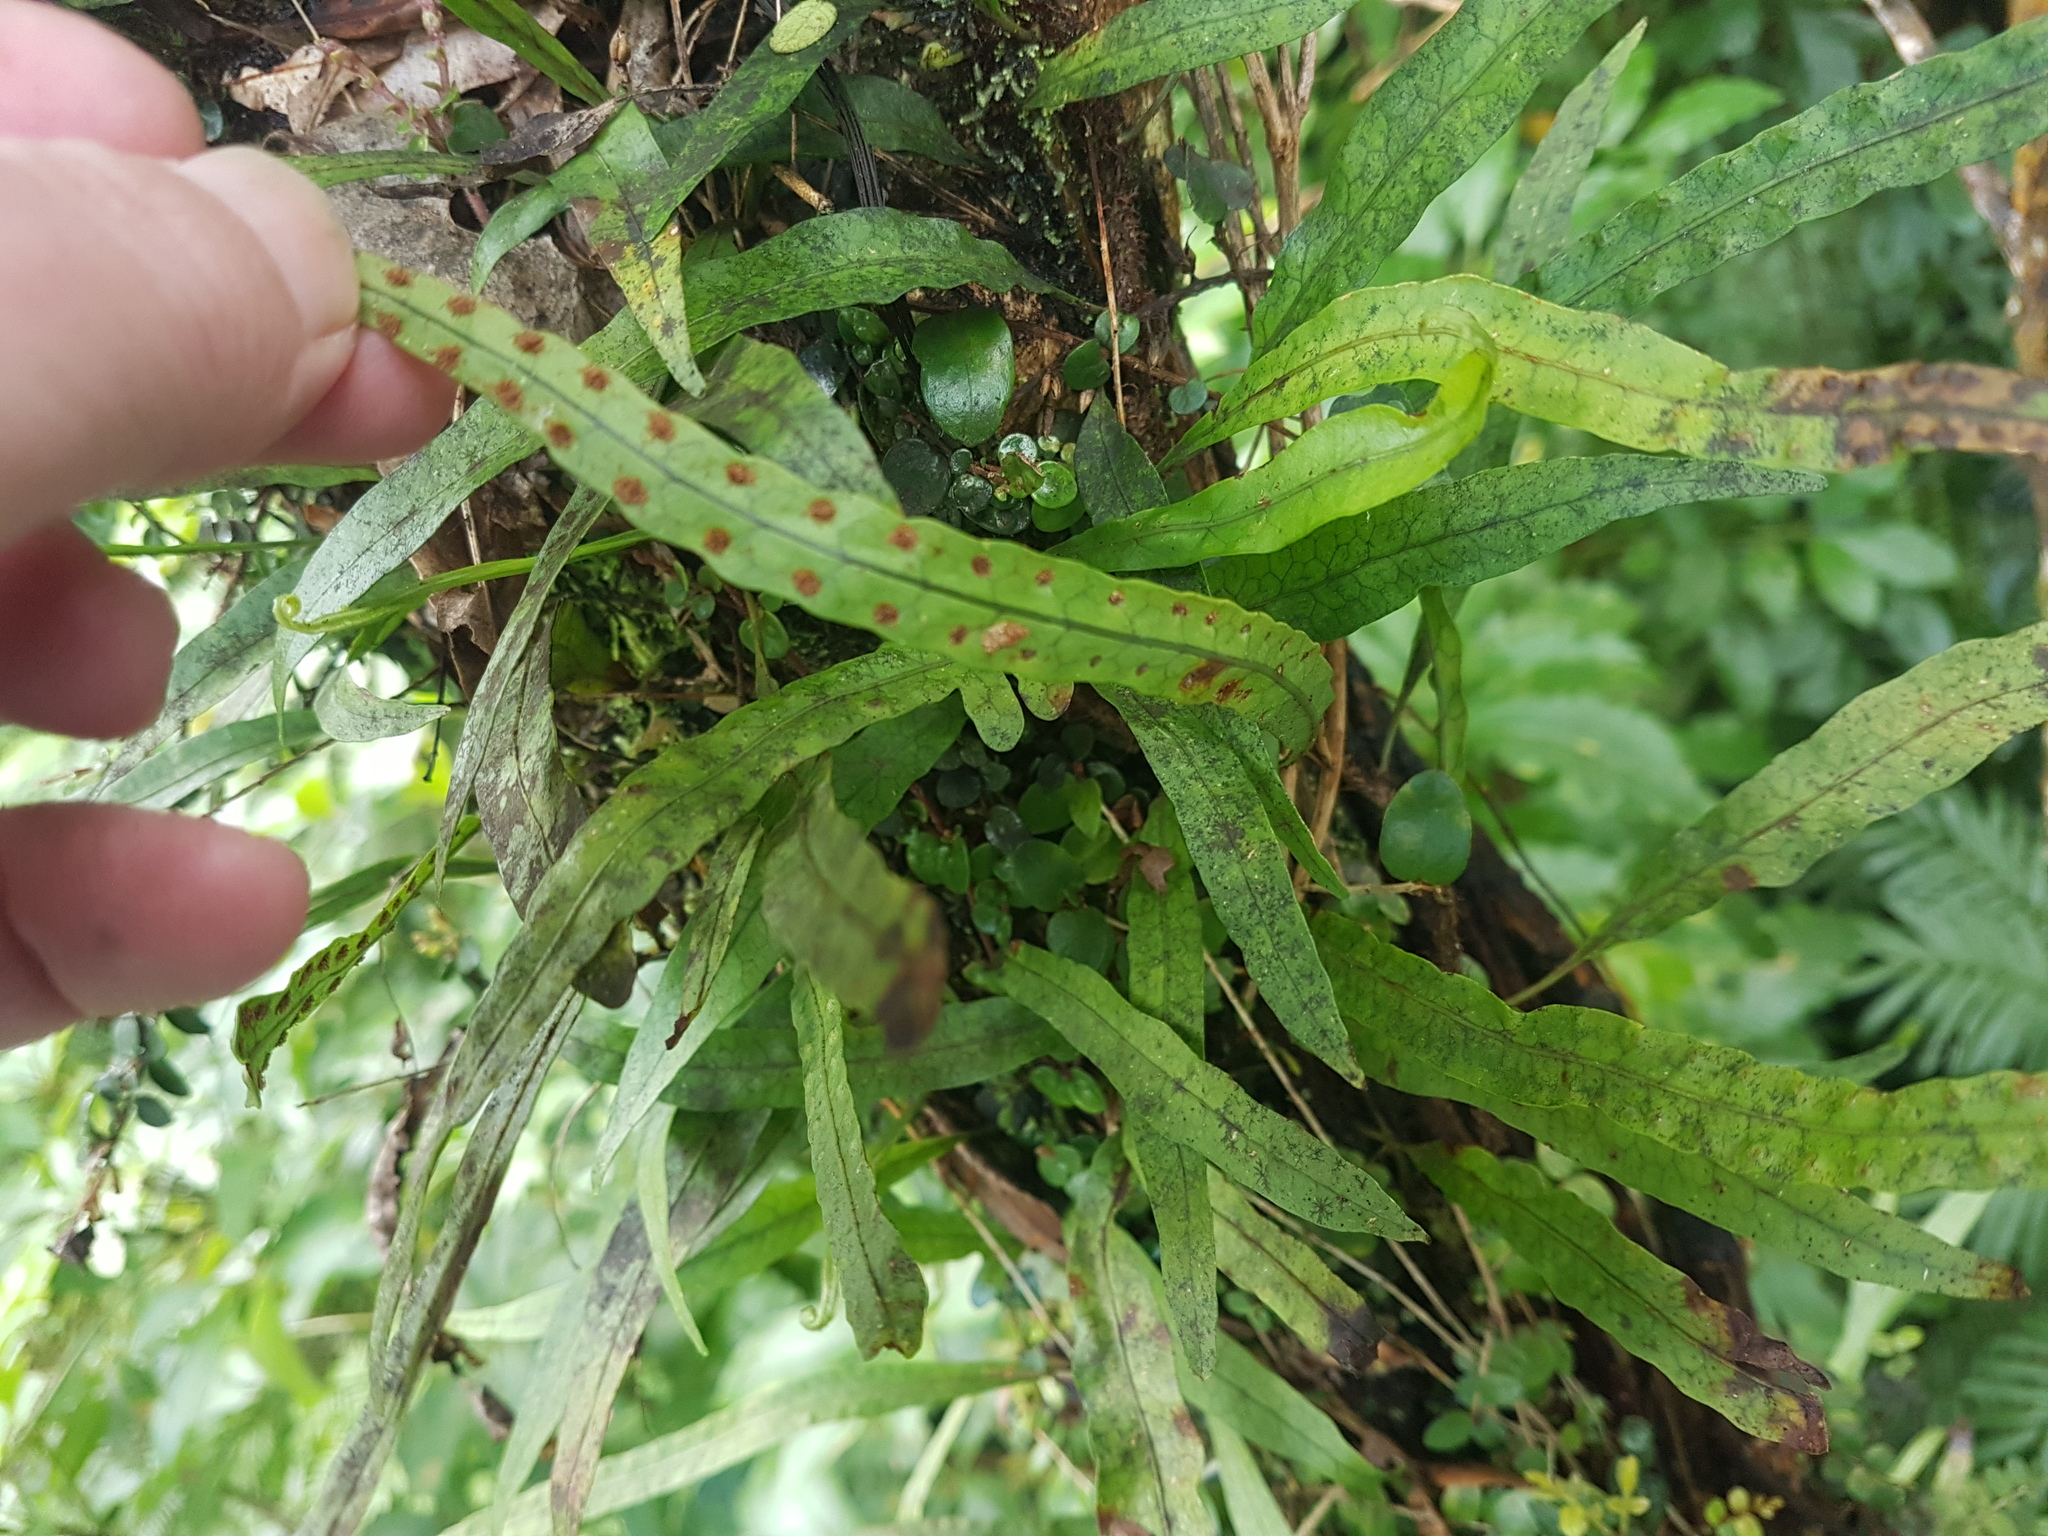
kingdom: Plantae
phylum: Tracheophyta
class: Polypodiopsida
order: Polypodiales
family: Polypodiaceae
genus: Lecanopteris
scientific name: Lecanopteris scandens
